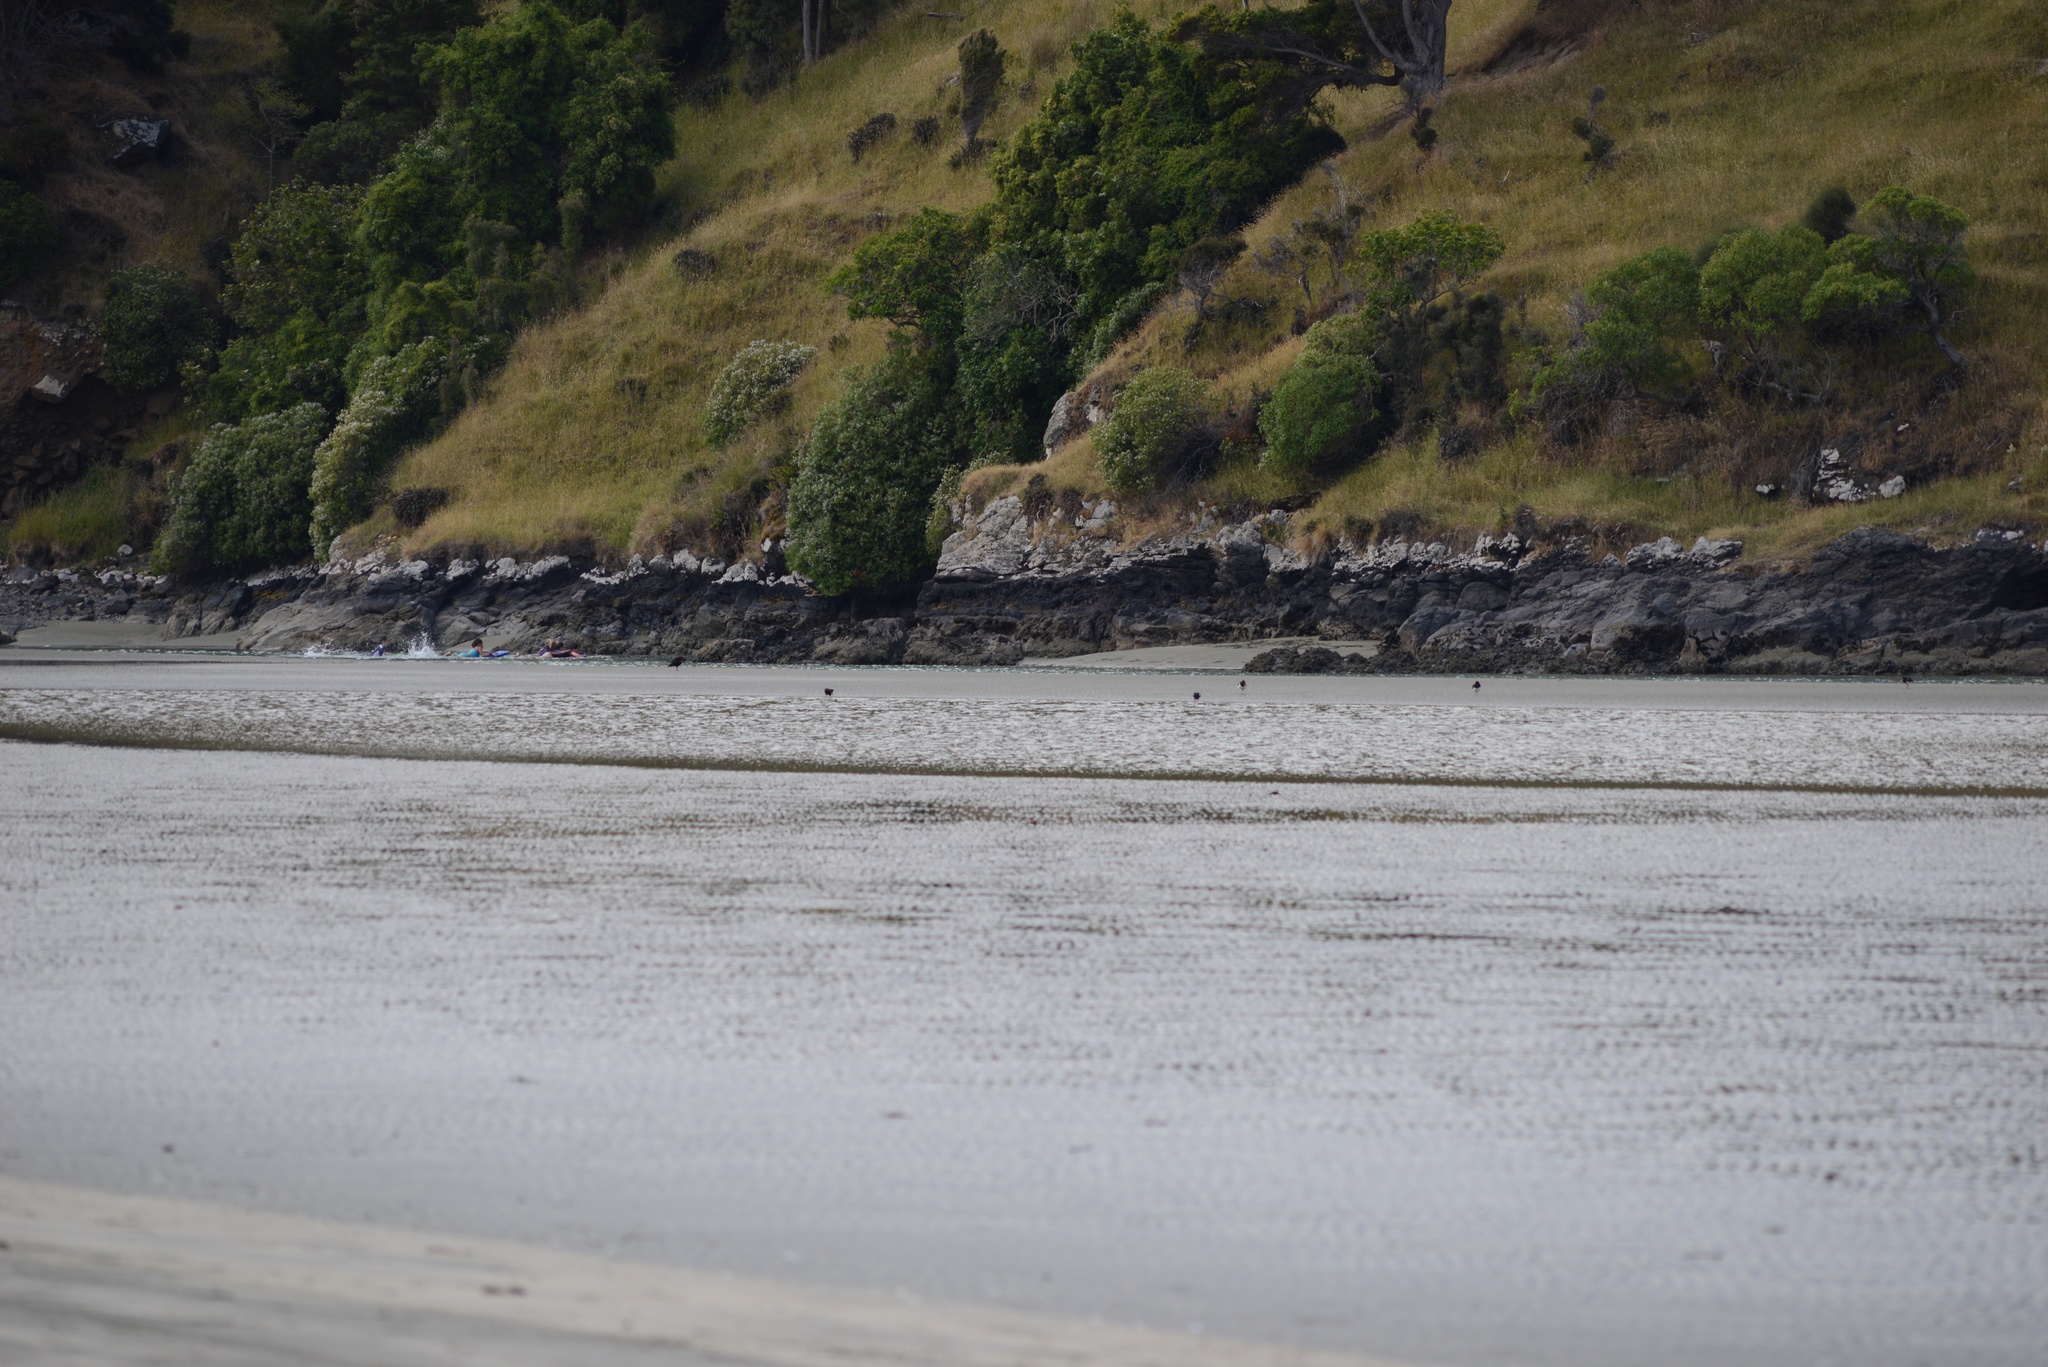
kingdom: Animalia
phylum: Chordata
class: Aves
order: Charadriiformes
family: Haematopodidae
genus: Haematopus
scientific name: Haematopus finschi
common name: South island oystercatcher
